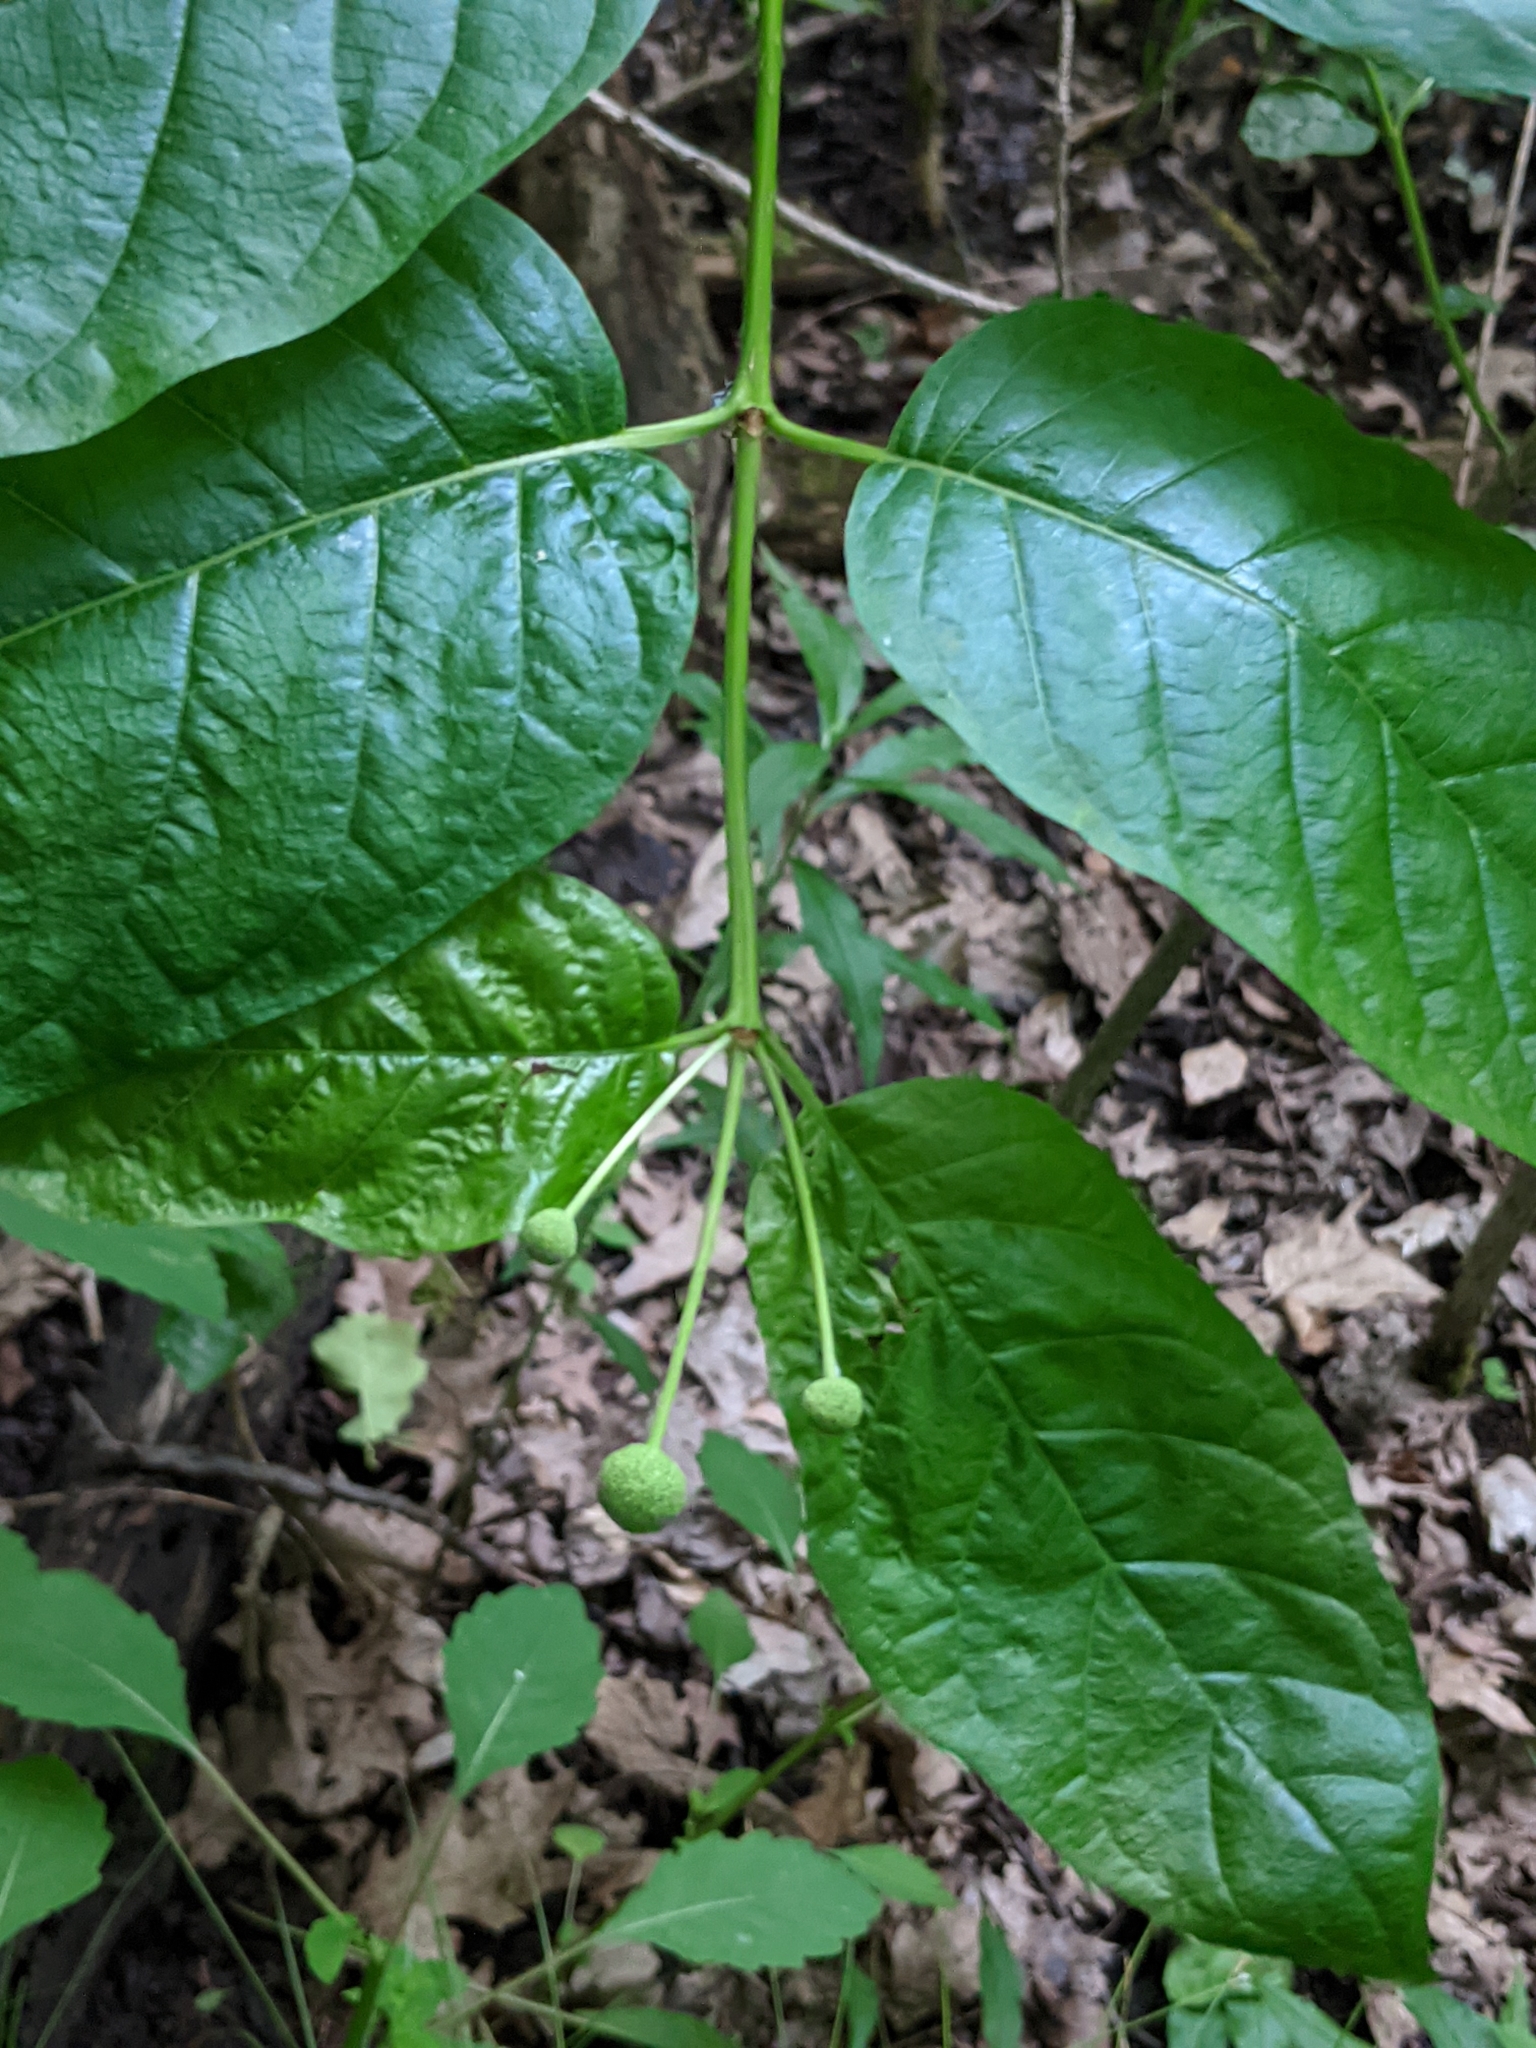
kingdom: Plantae
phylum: Tracheophyta
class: Magnoliopsida
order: Gentianales
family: Rubiaceae
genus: Cephalanthus
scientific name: Cephalanthus occidentalis
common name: Button-willow
